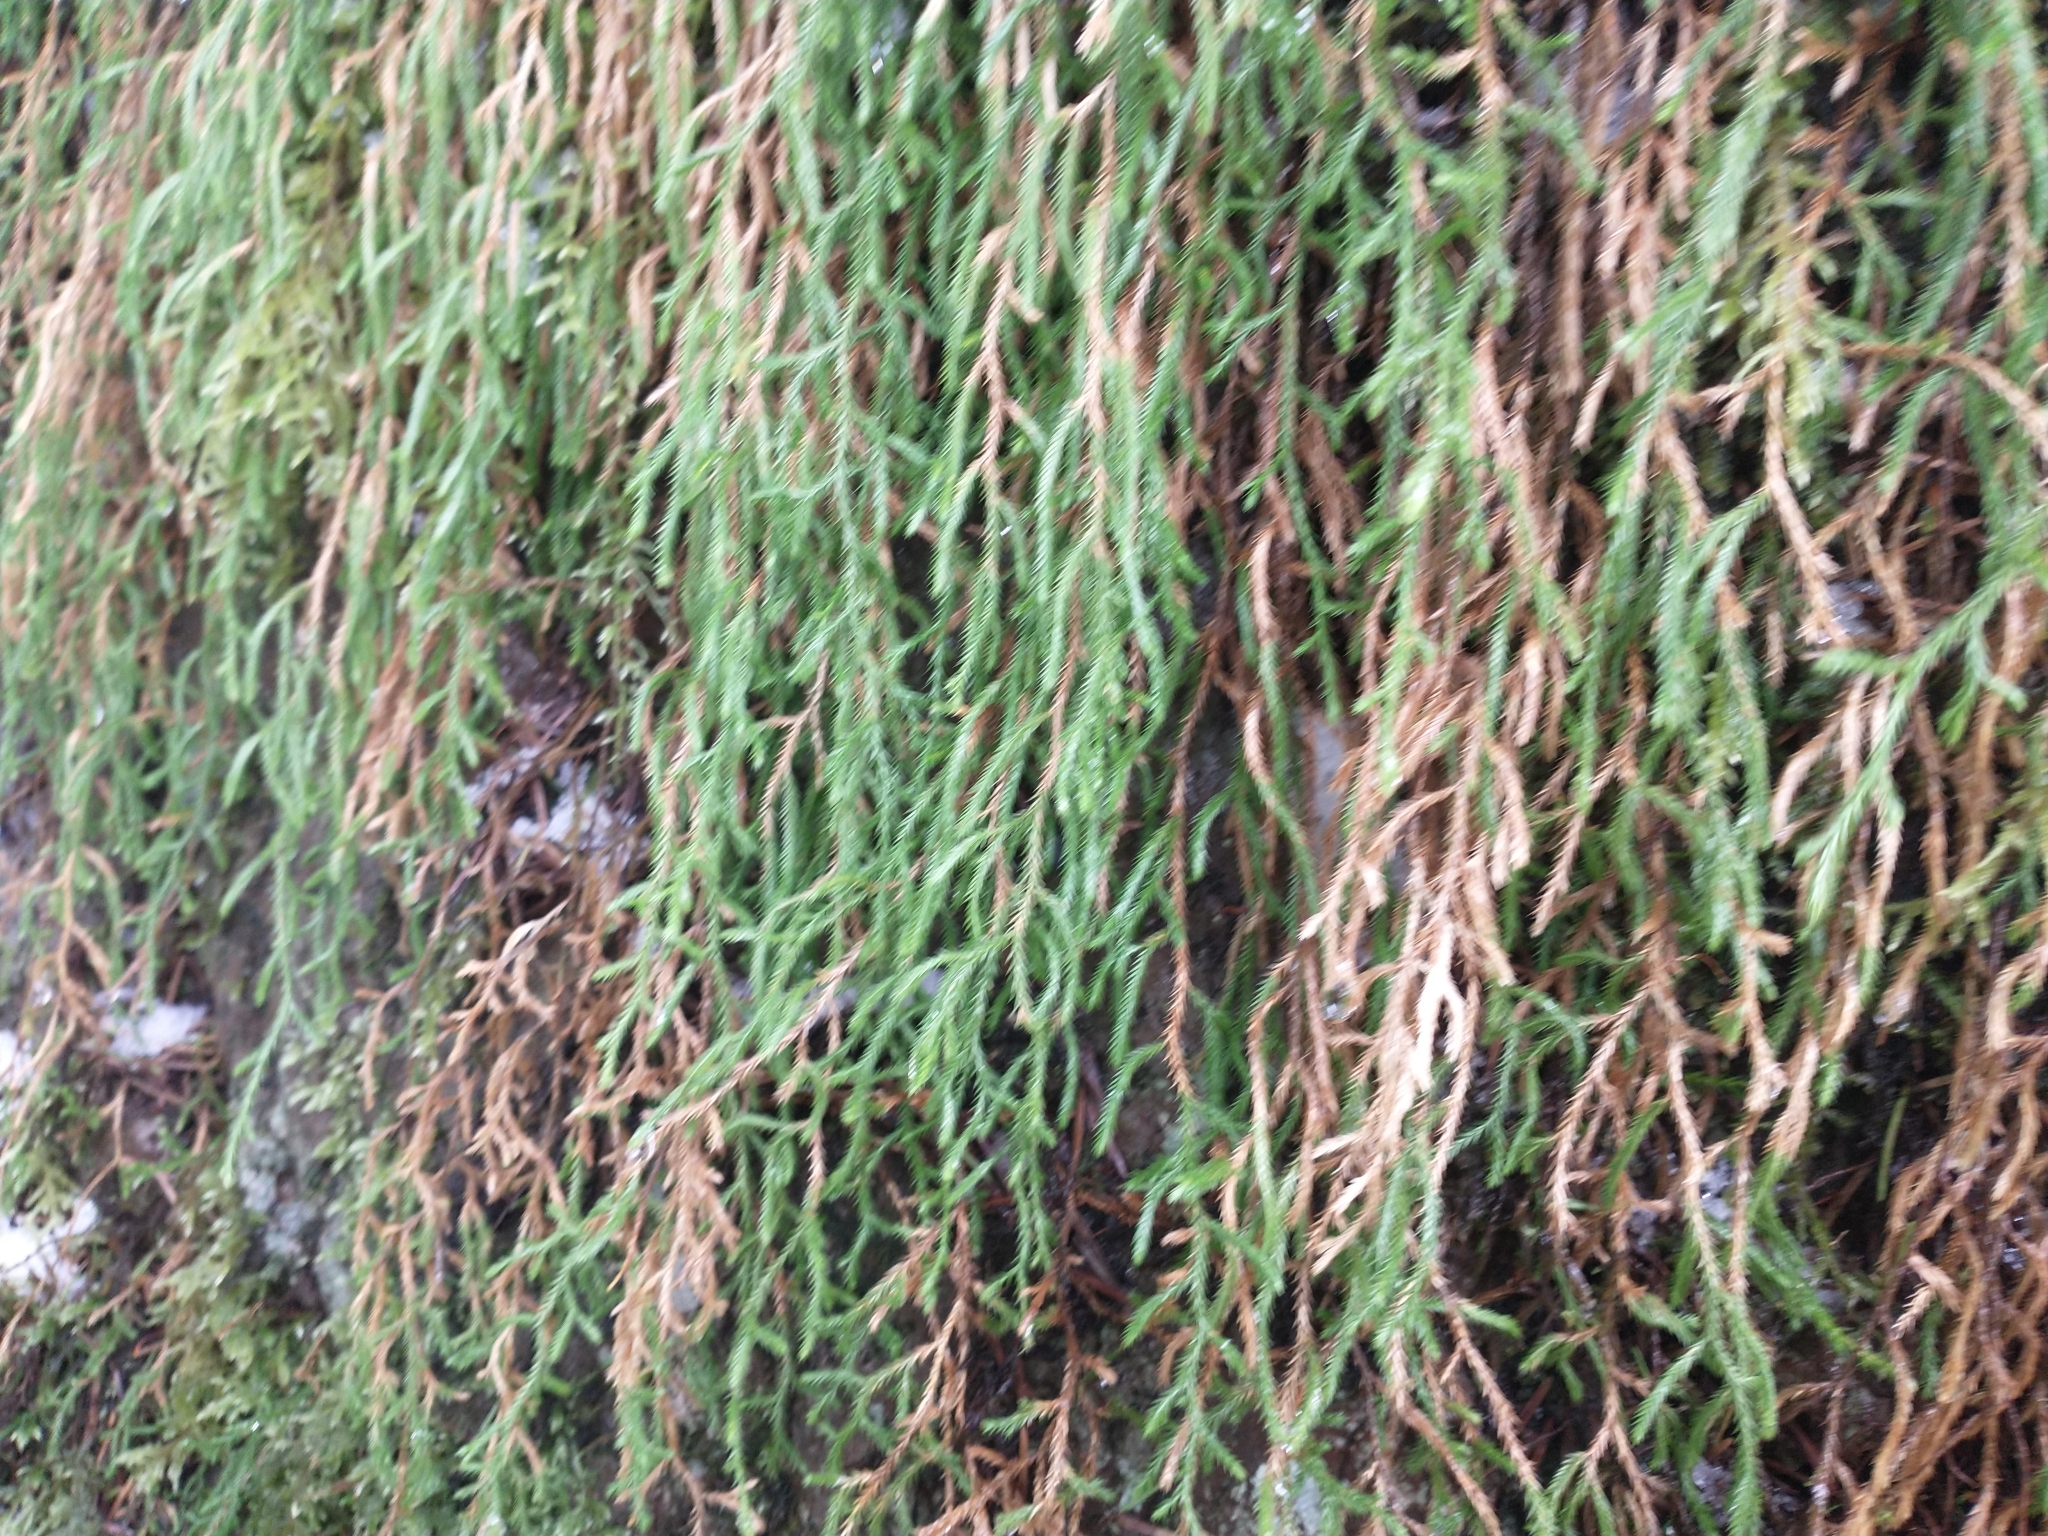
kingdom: Plantae
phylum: Tracheophyta
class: Lycopodiopsida
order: Selaginellales
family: Selaginellaceae
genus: Selaginella
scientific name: Selaginella oregana
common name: Oregon selaginella
